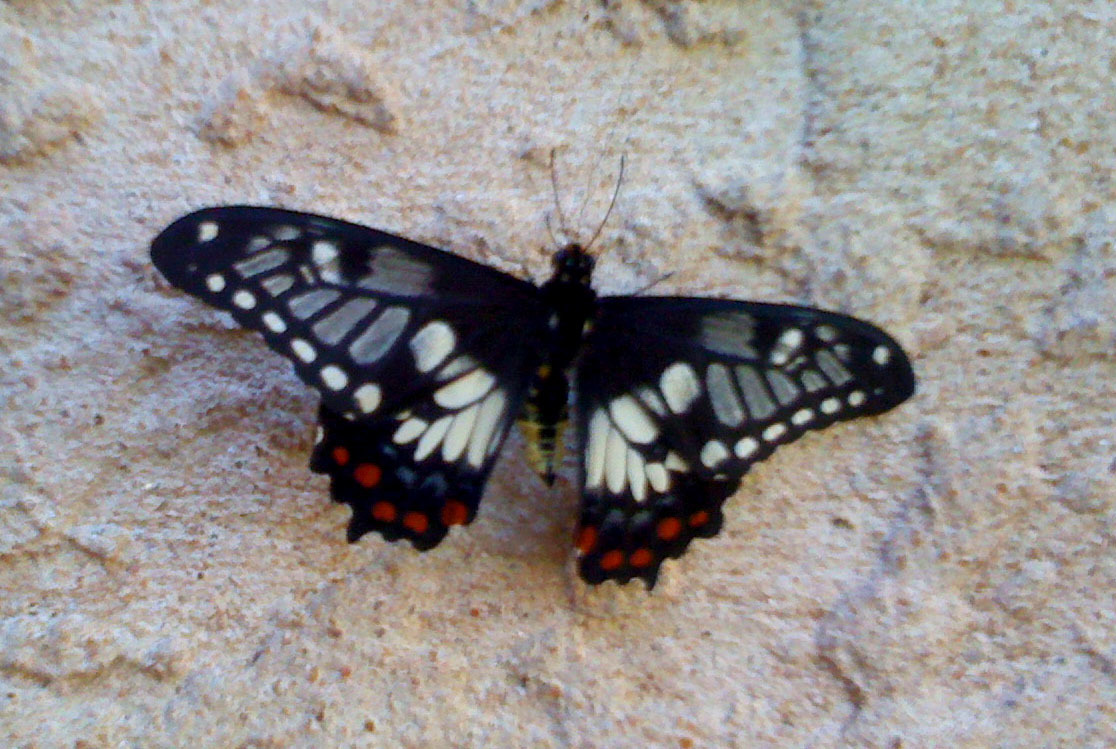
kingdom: Animalia
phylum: Arthropoda
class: Insecta
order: Lepidoptera
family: Papilionidae
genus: Papilio
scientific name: Papilio anactus
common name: Dingy swallowtail
